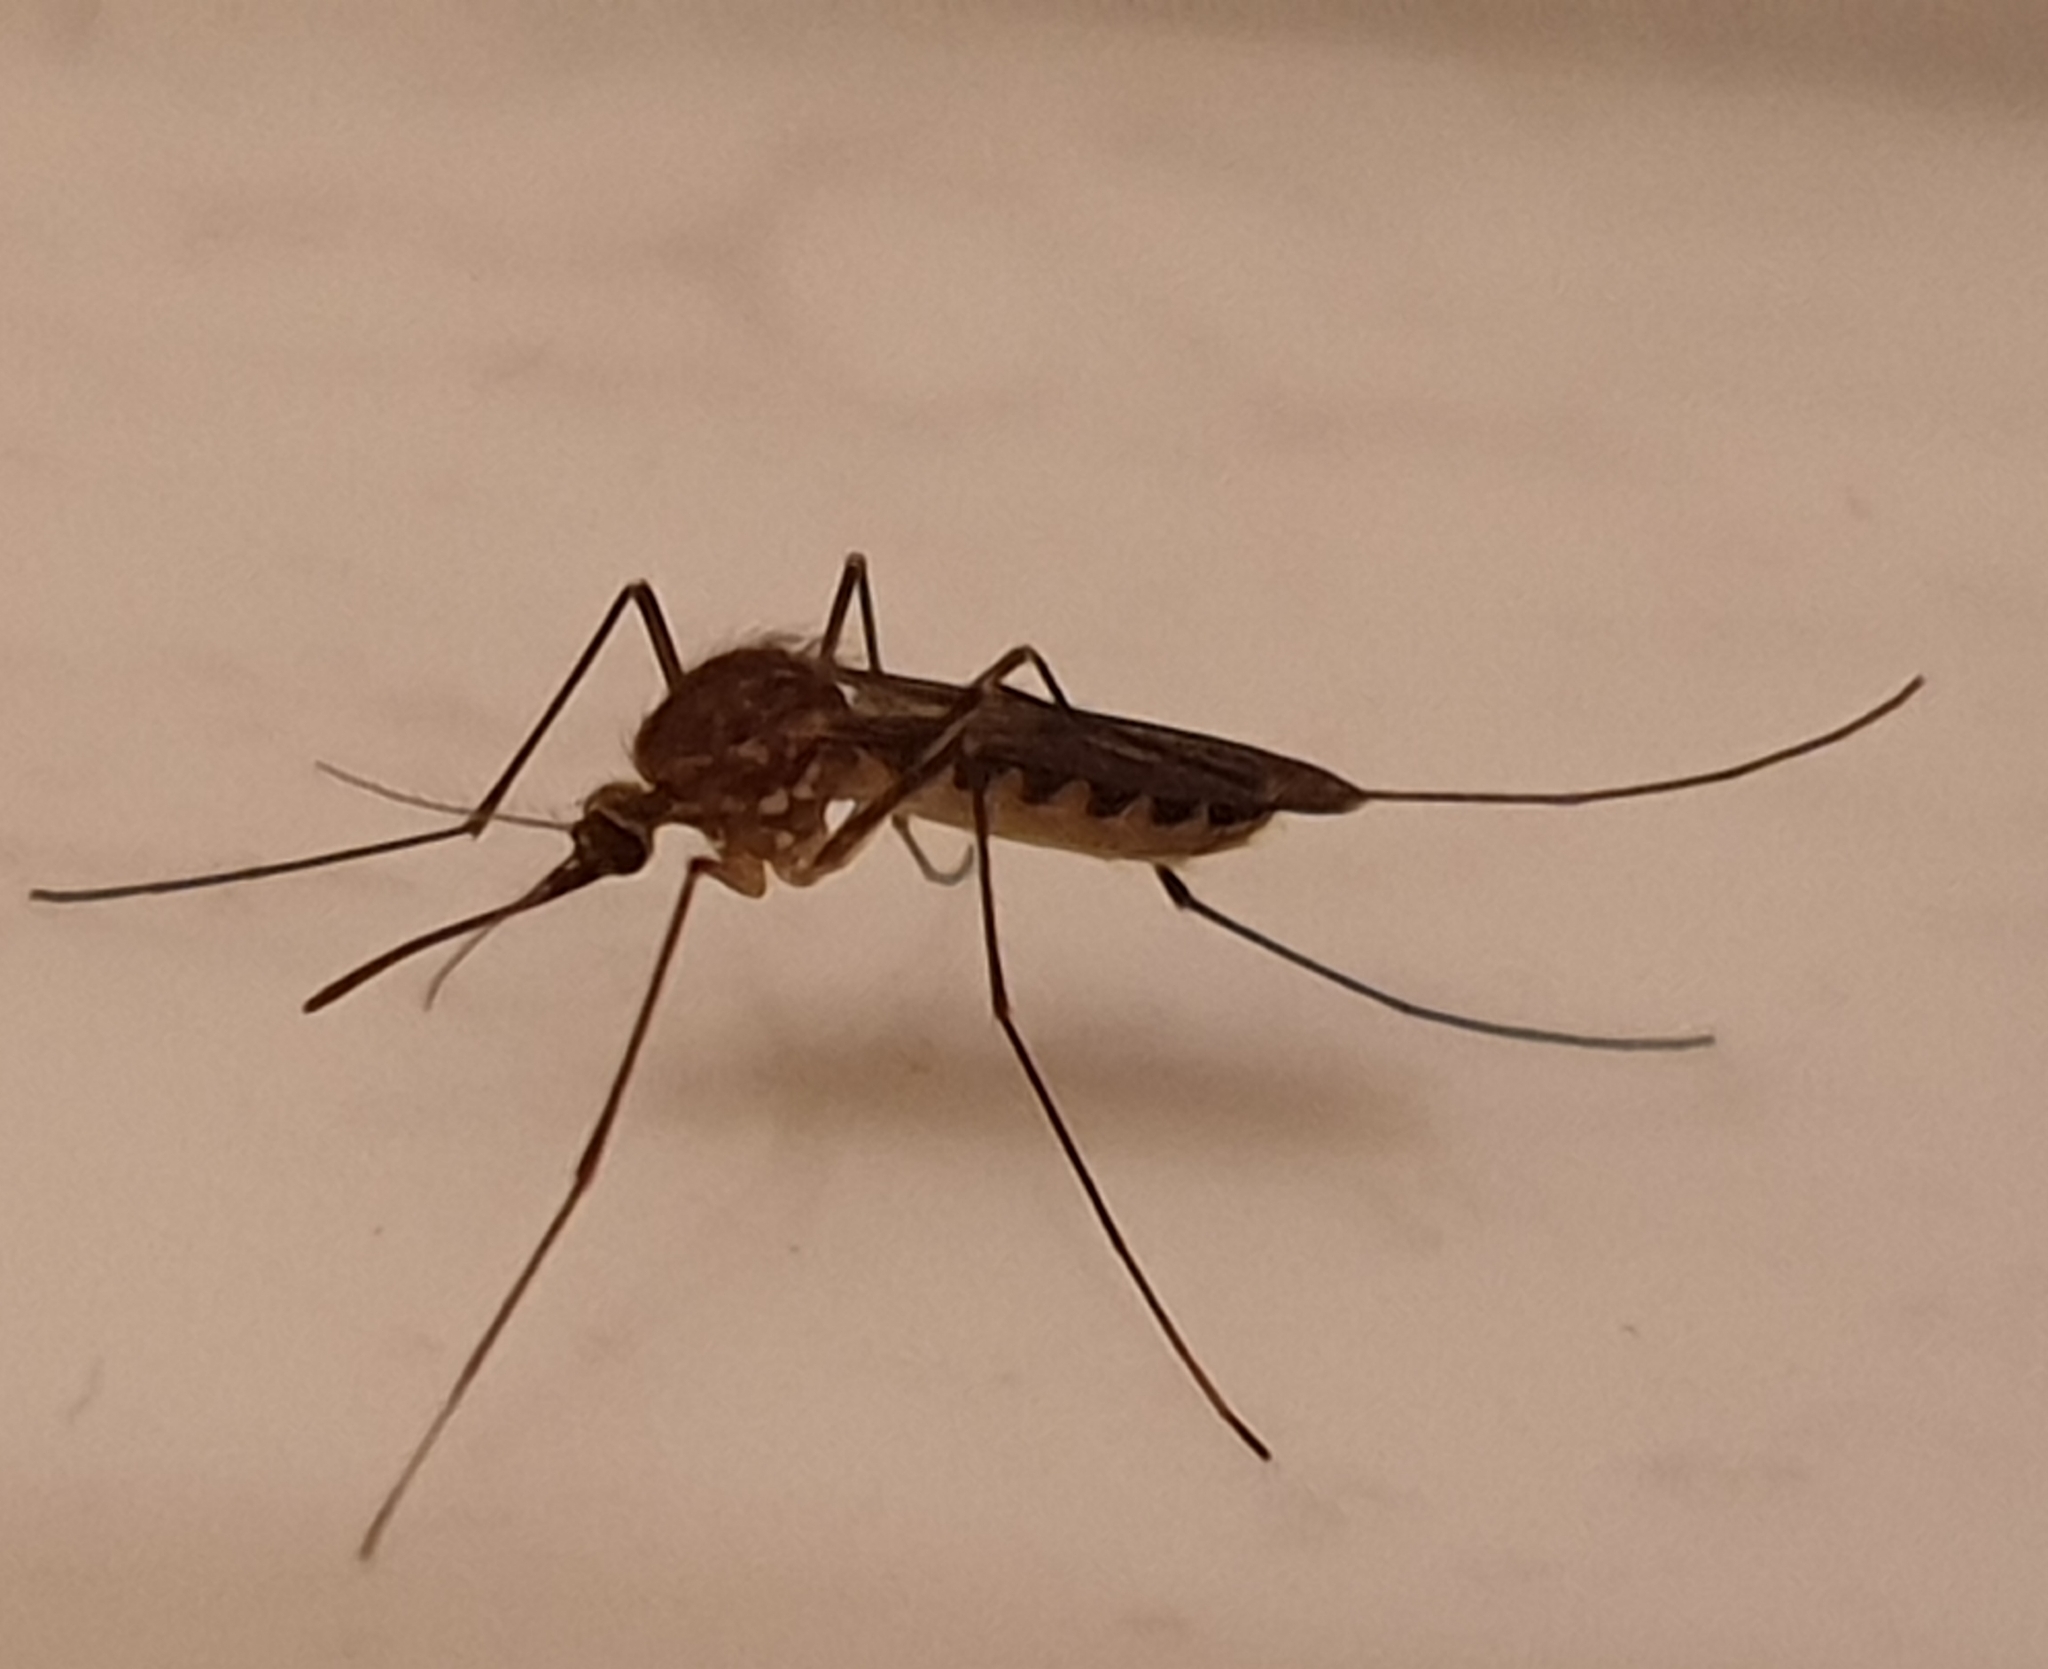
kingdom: Animalia
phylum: Arthropoda
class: Insecta
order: Diptera
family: Culicidae
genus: Culex
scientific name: Culex territans
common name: Northern frog-biting mosquito
